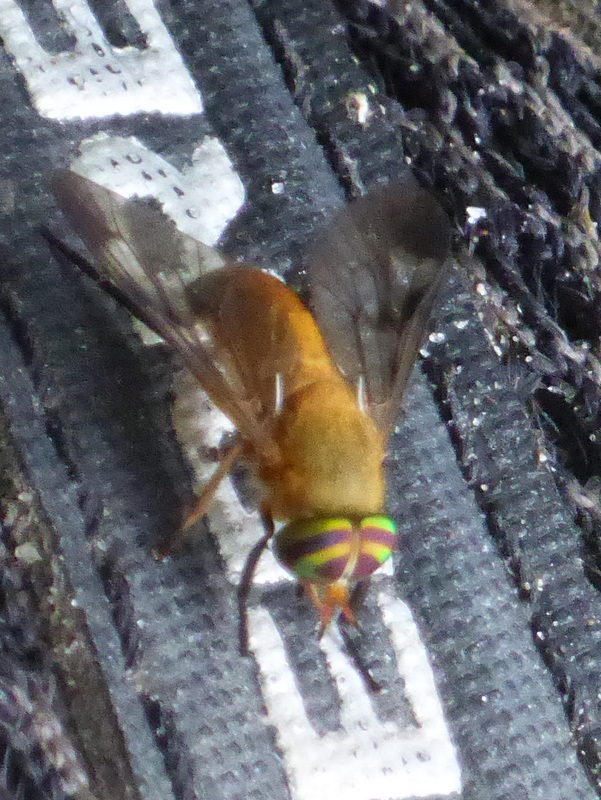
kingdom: Animalia
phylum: Arthropoda
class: Insecta
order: Diptera
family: Tabanidae
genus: Diachlorus
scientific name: Diachlorus ferrugatus
